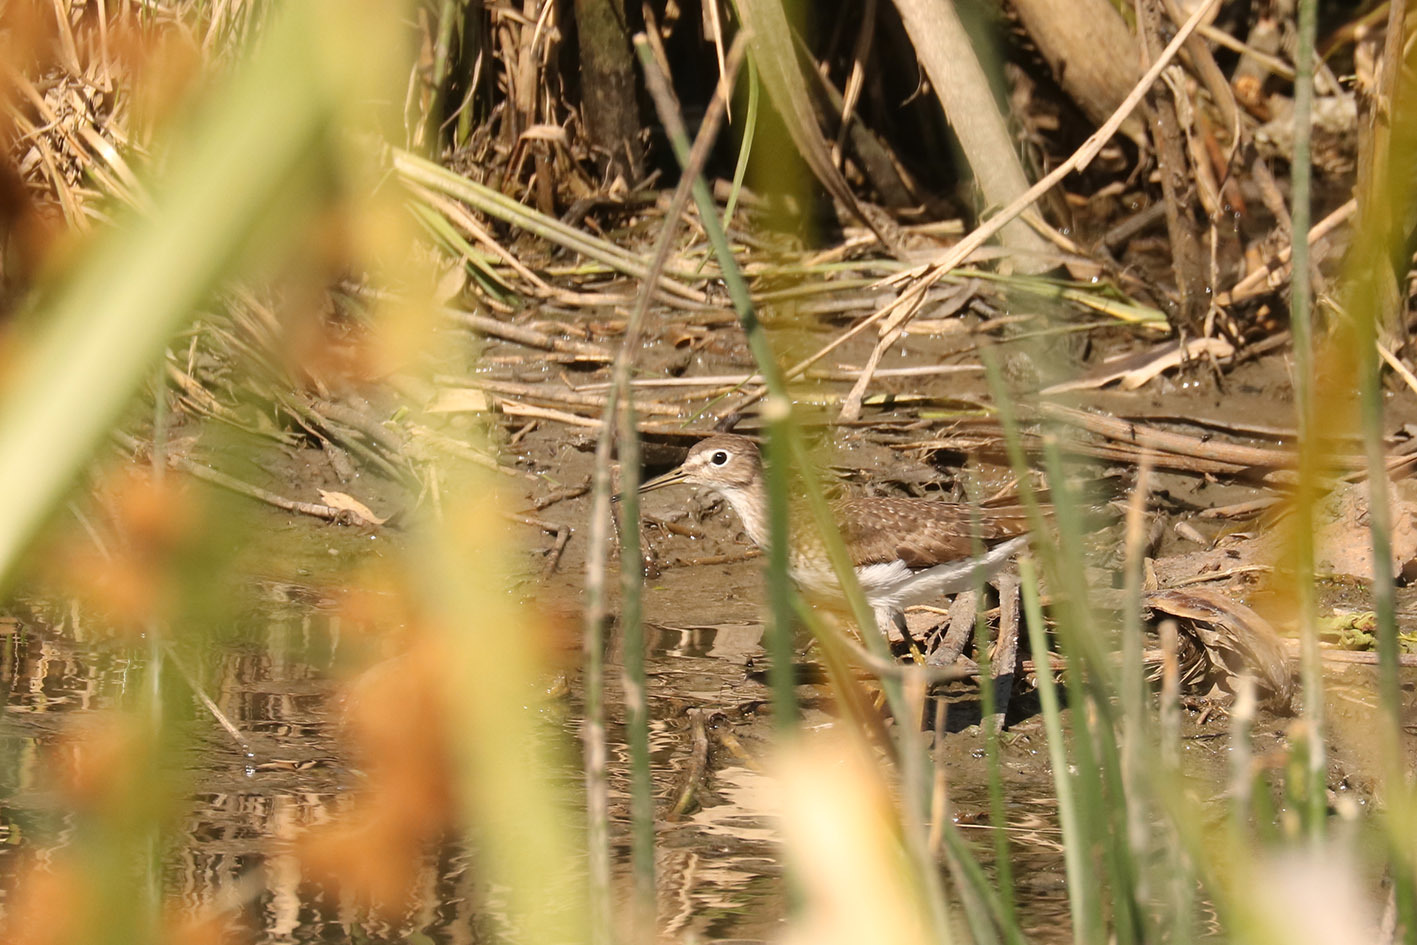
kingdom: Animalia
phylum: Chordata
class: Aves
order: Charadriiformes
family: Scolopacidae
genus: Tringa
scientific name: Tringa solitaria
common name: Solitary sandpiper
